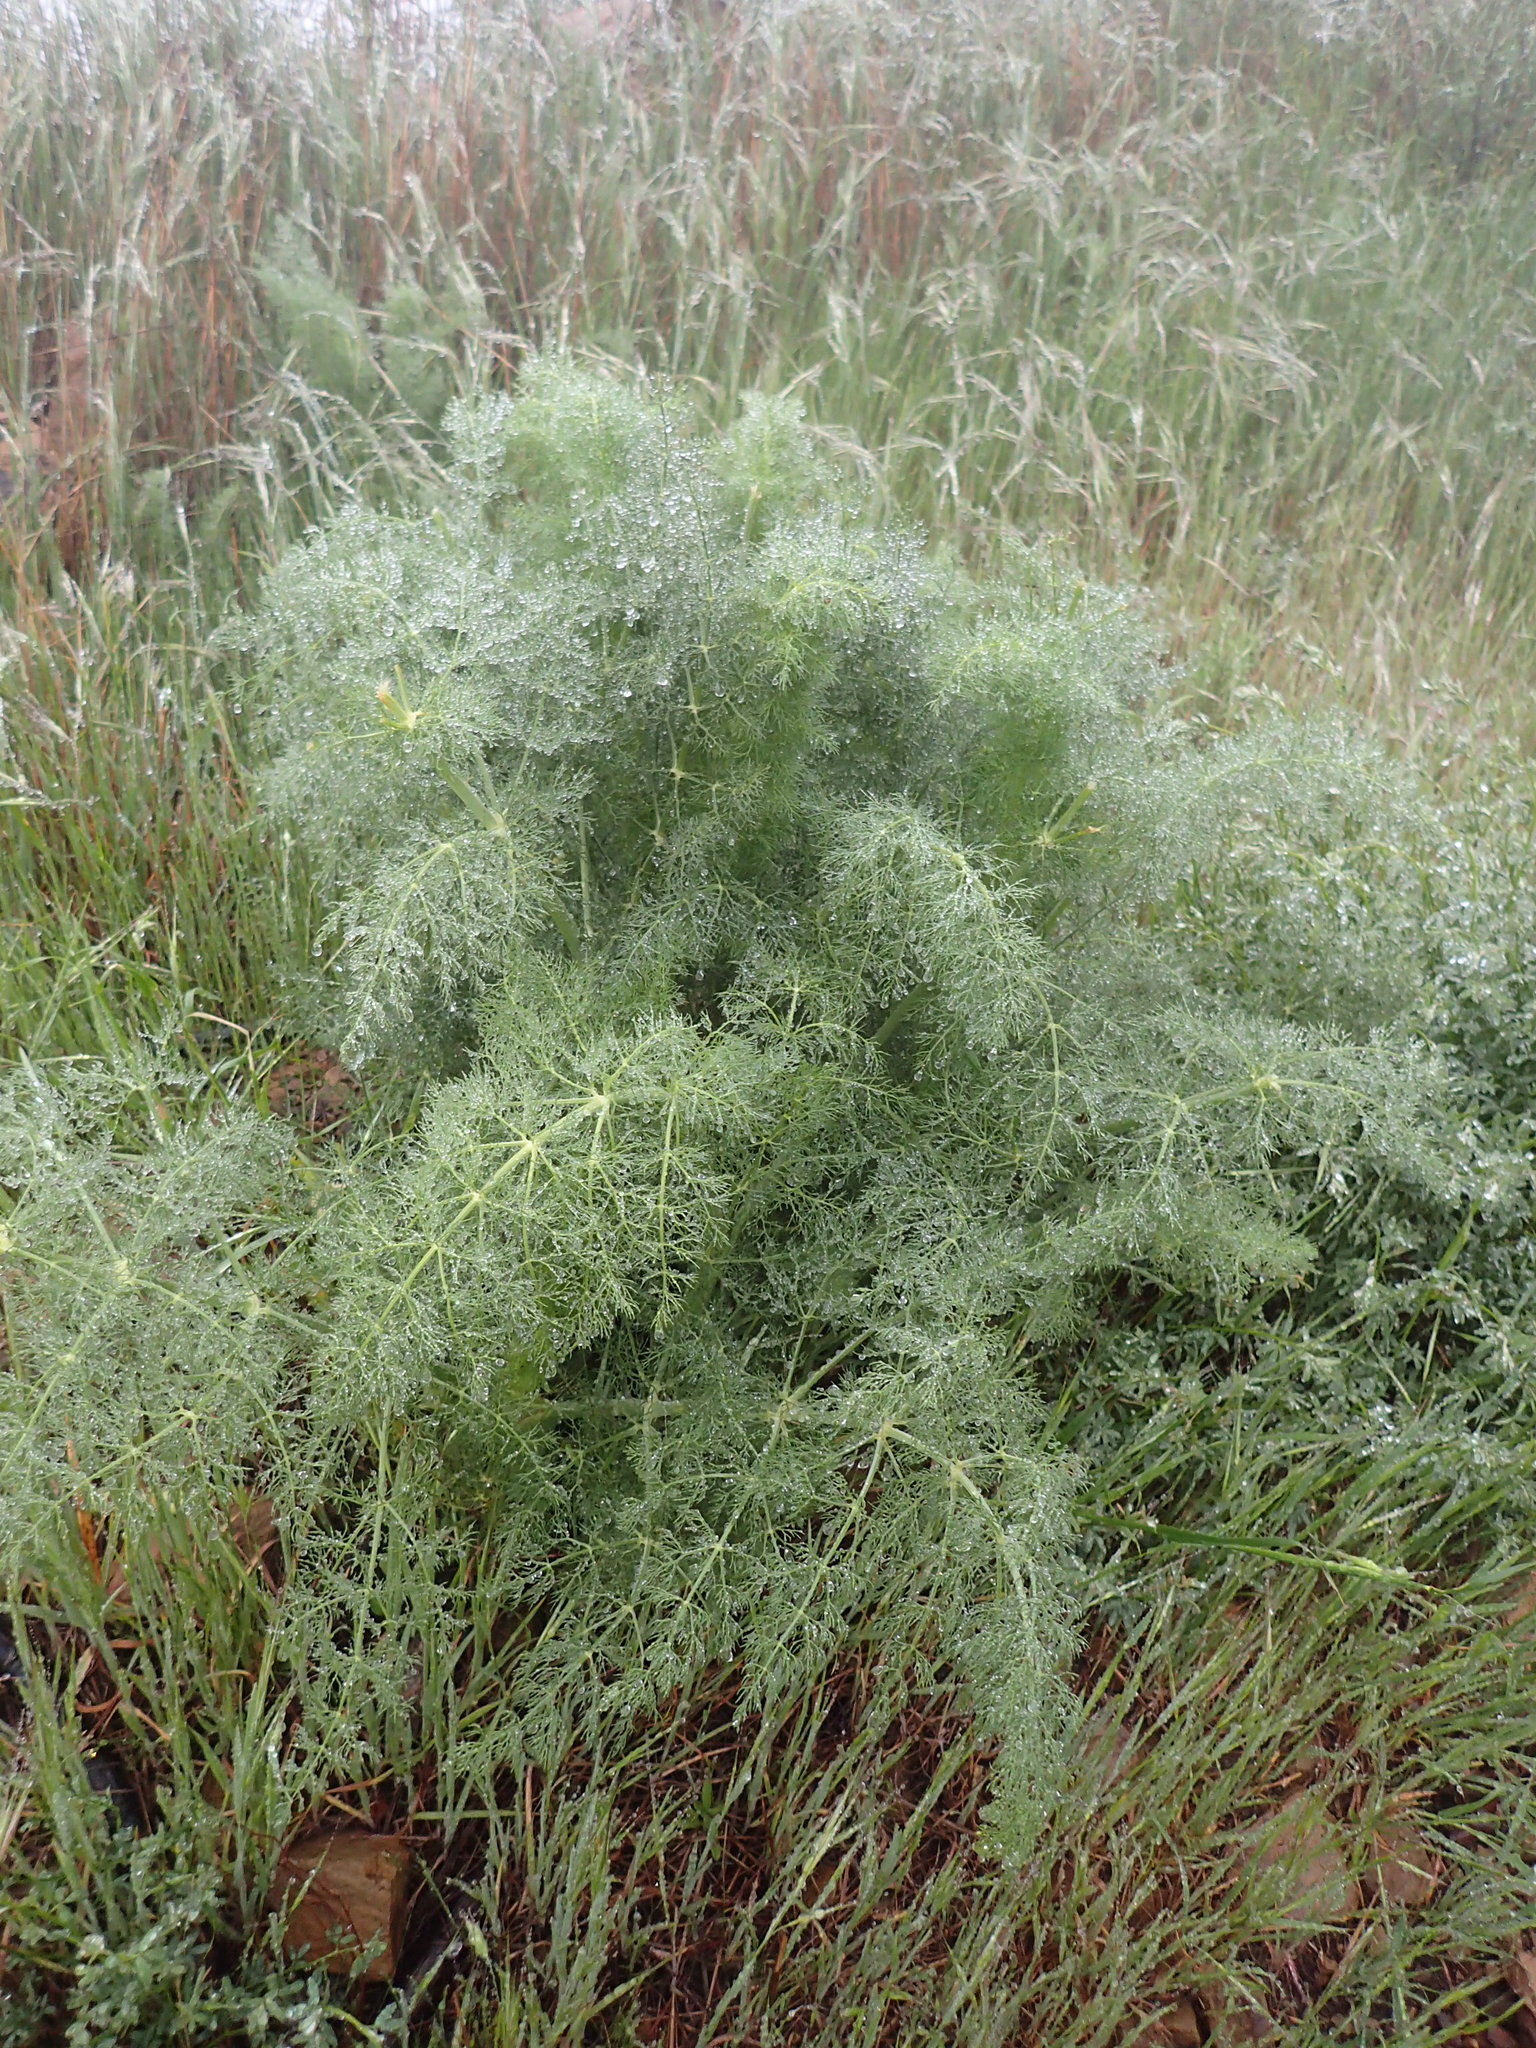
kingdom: Plantae
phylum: Tracheophyta
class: Magnoliopsida
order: Apiales
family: Apiaceae
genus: Foeniculum
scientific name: Foeniculum vulgare
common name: Fennel
